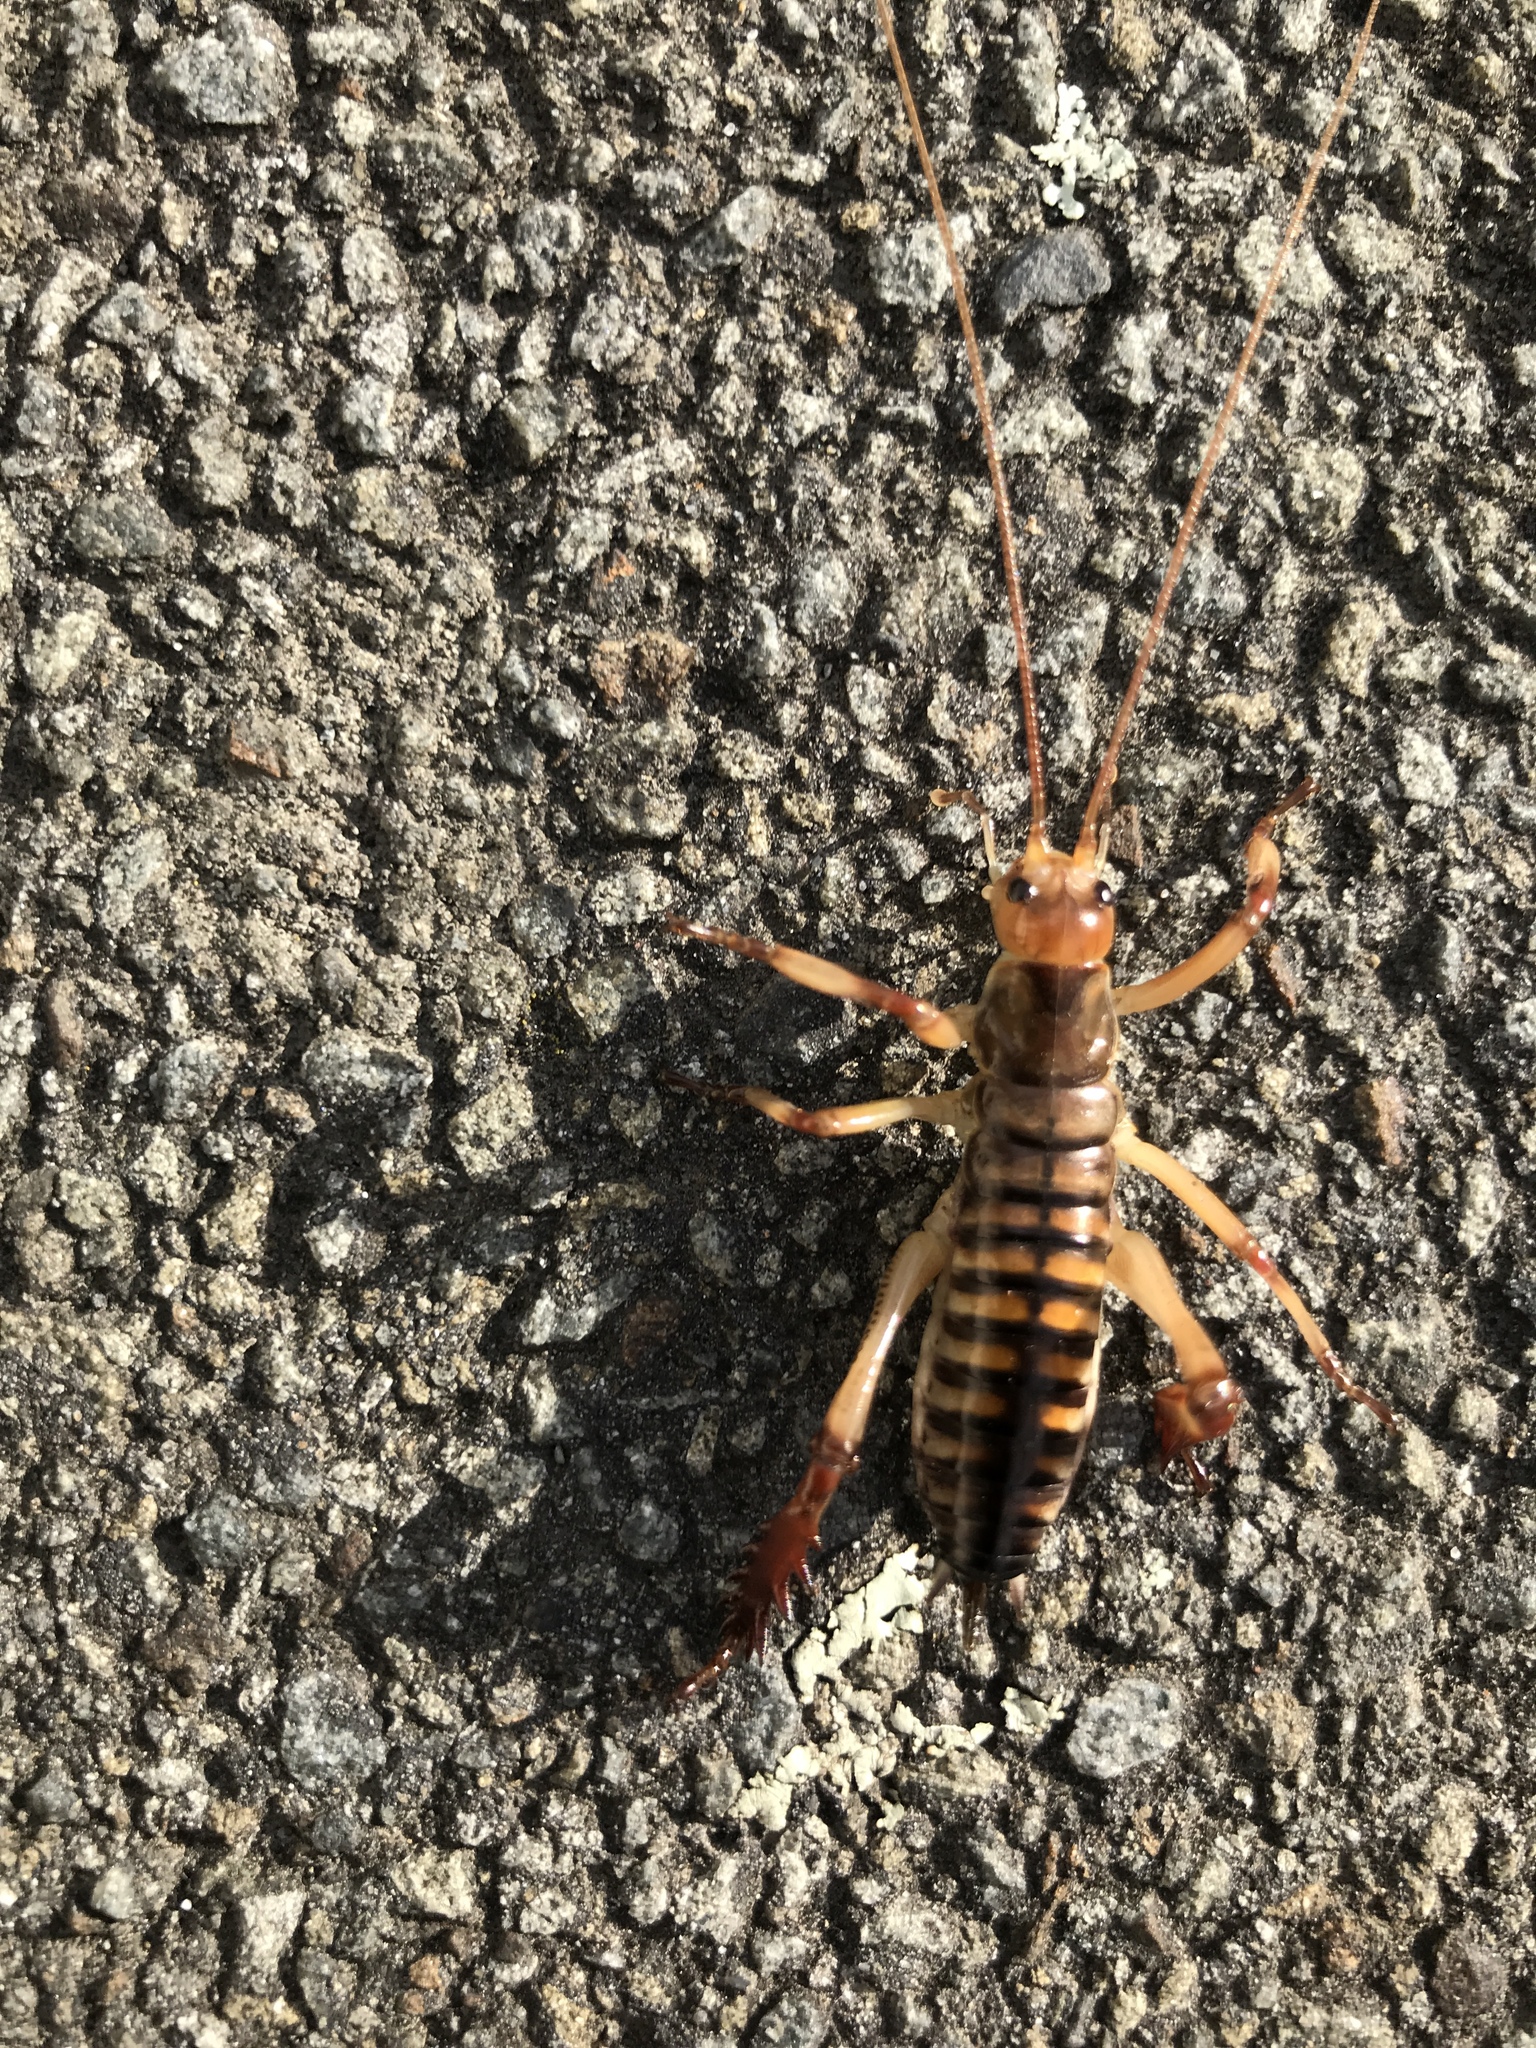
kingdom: Animalia
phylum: Arthropoda
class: Insecta
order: Orthoptera
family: Anostostomatidae
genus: Hemideina
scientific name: Hemideina crassidens
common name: Wellington tree weta
